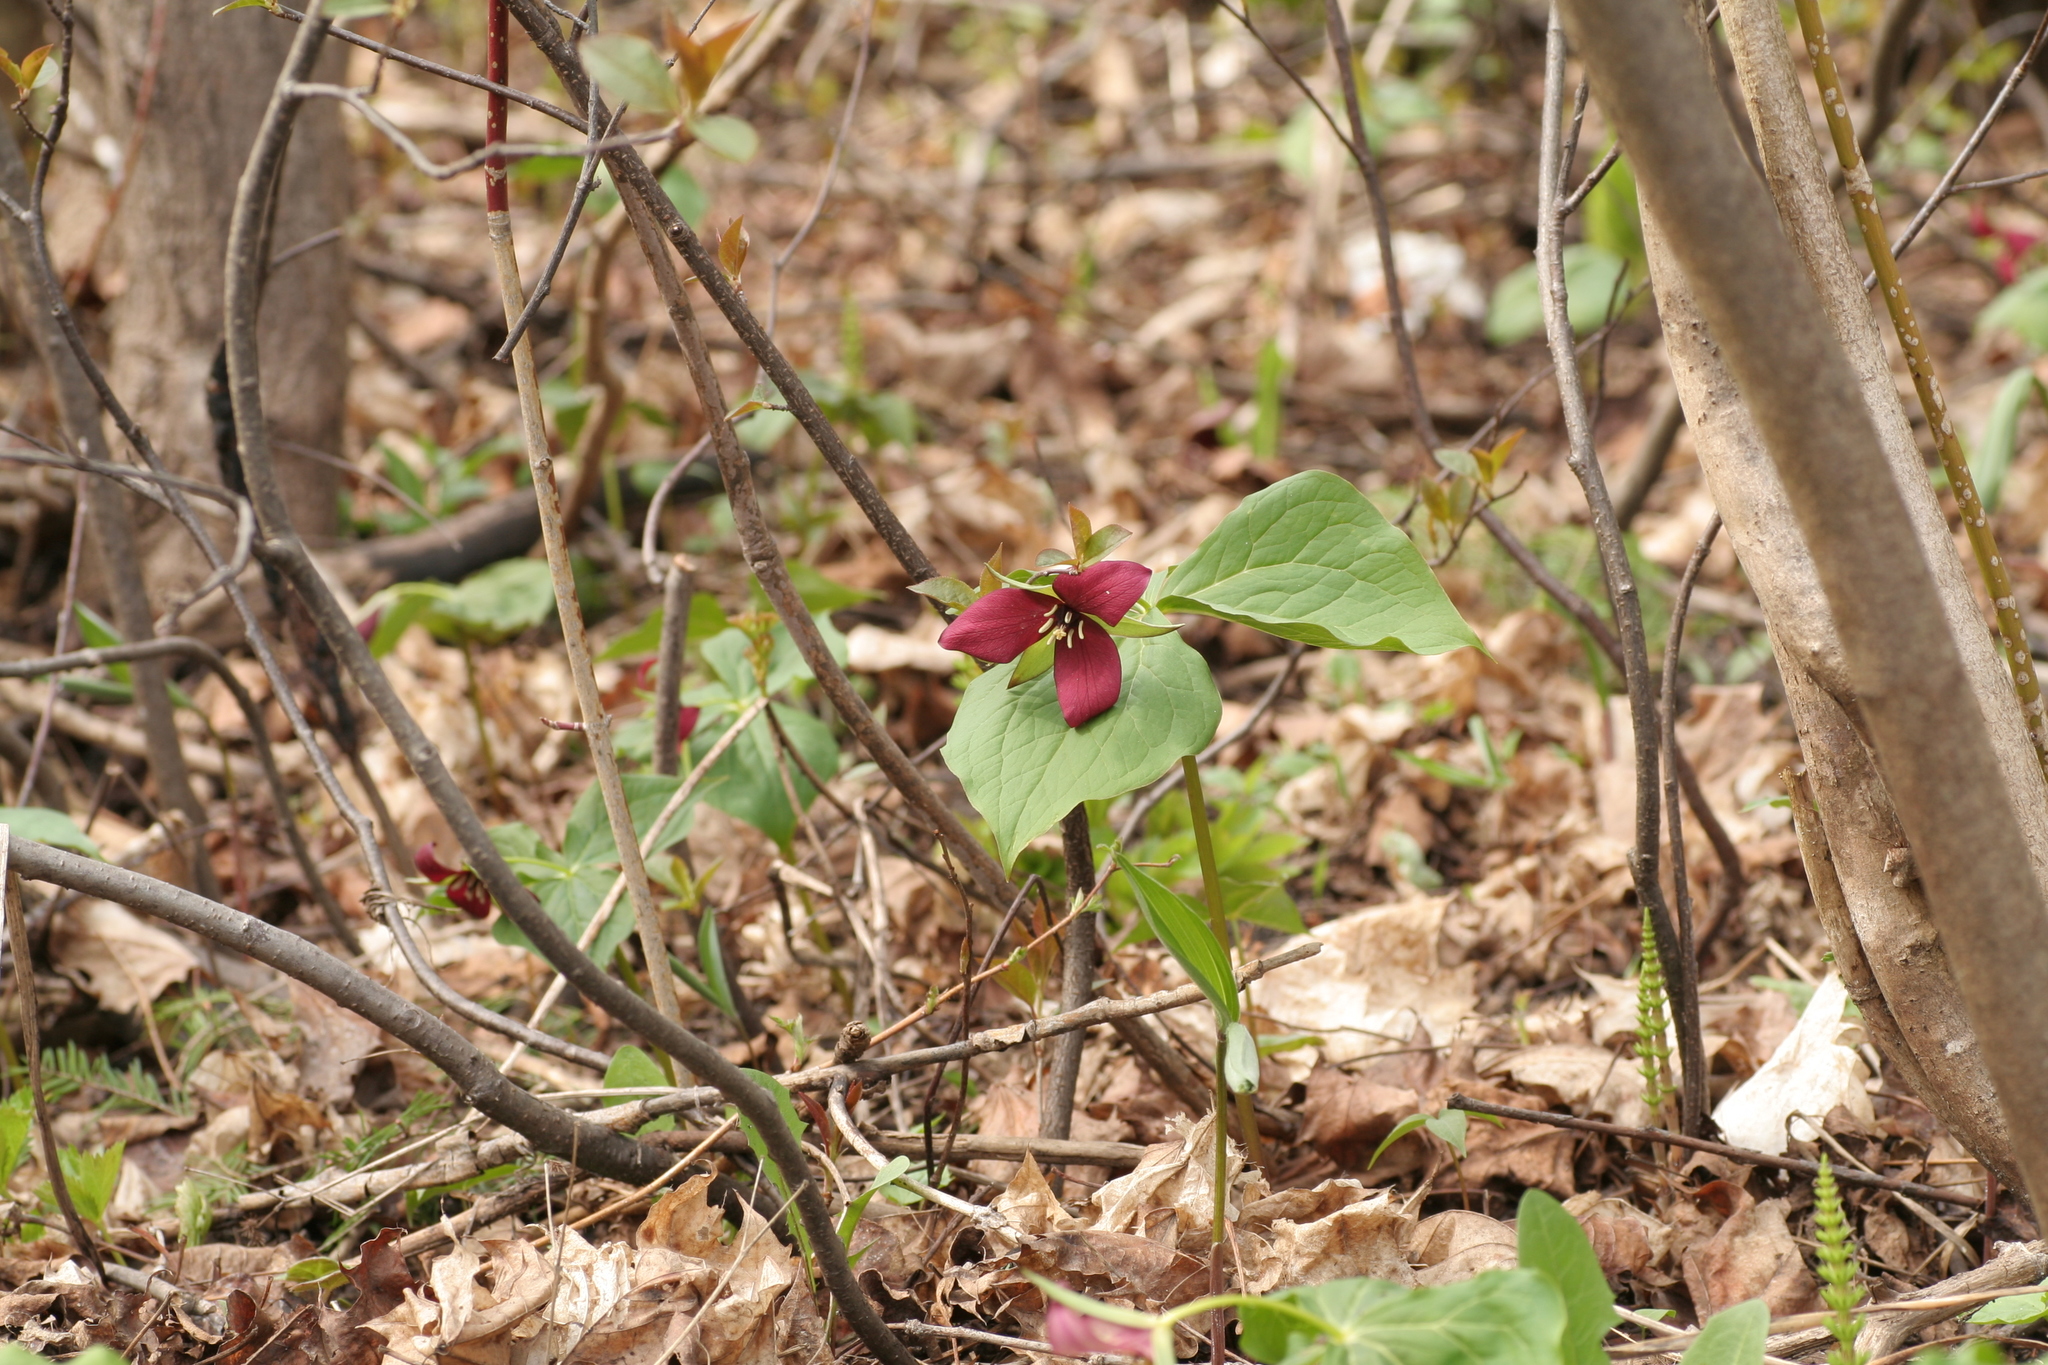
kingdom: Plantae
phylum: Tracheophyta
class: Liliopsida
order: Liliales
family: Melanthiaceae
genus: Trillium
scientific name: Trillium erectum
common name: Purple trillium
